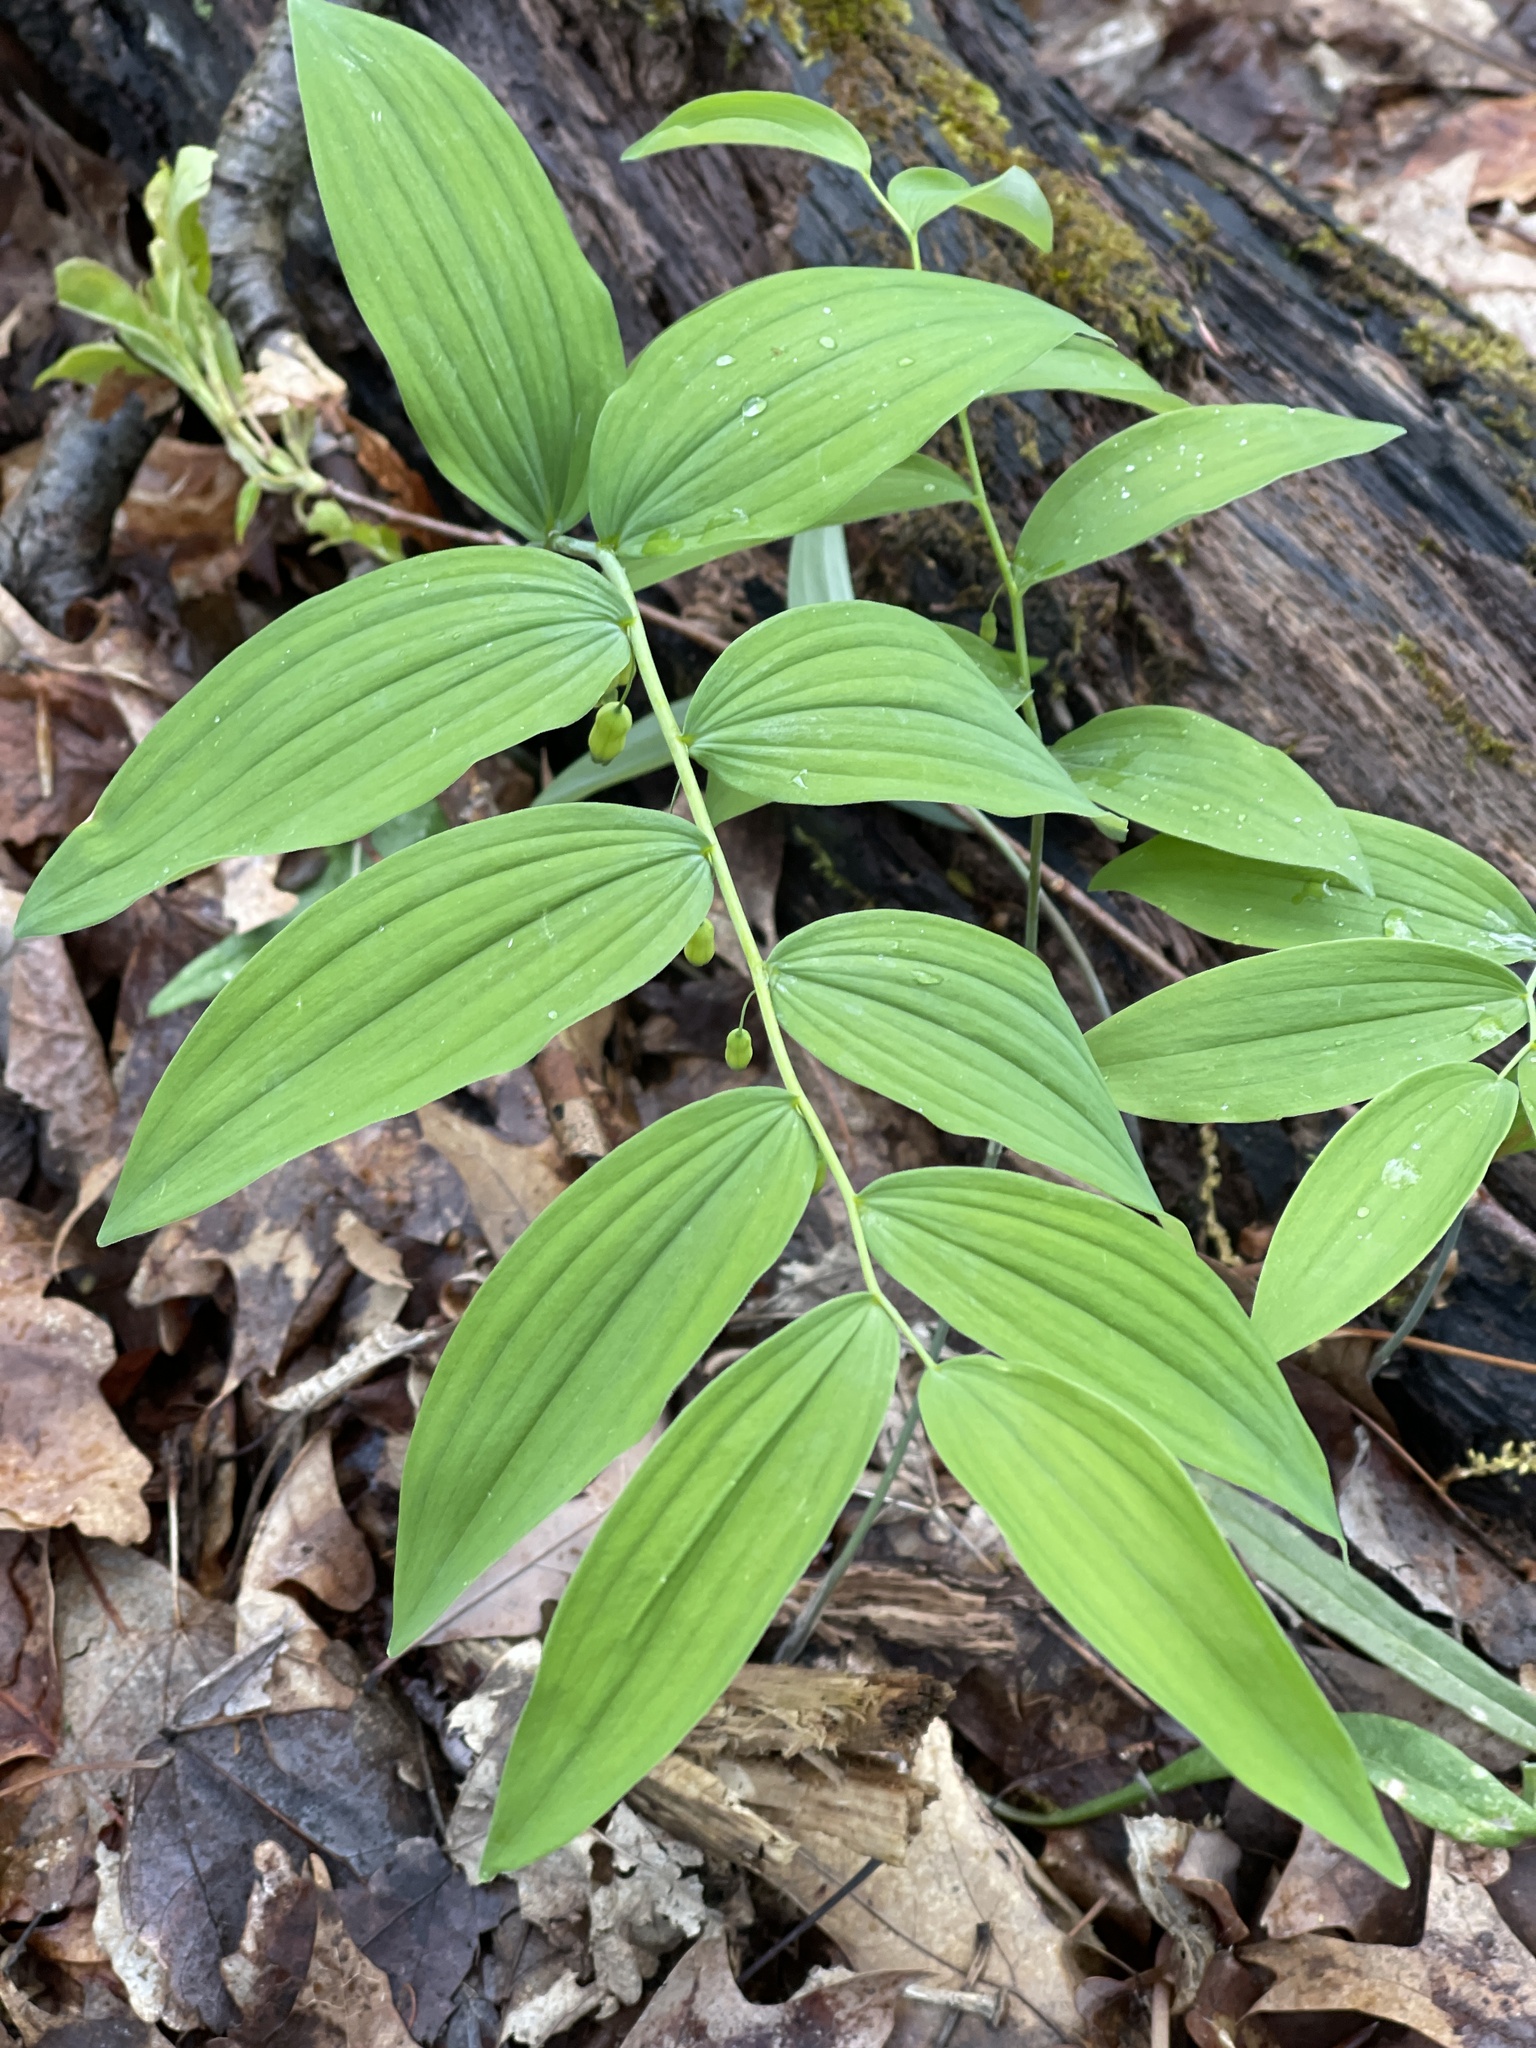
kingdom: Plantae
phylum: Tracheophyta
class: Liliopsida
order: Asparagales
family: Asparagaceae
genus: Polygonatum
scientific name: Polygonatum pubescens
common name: Downy solomon's seal
